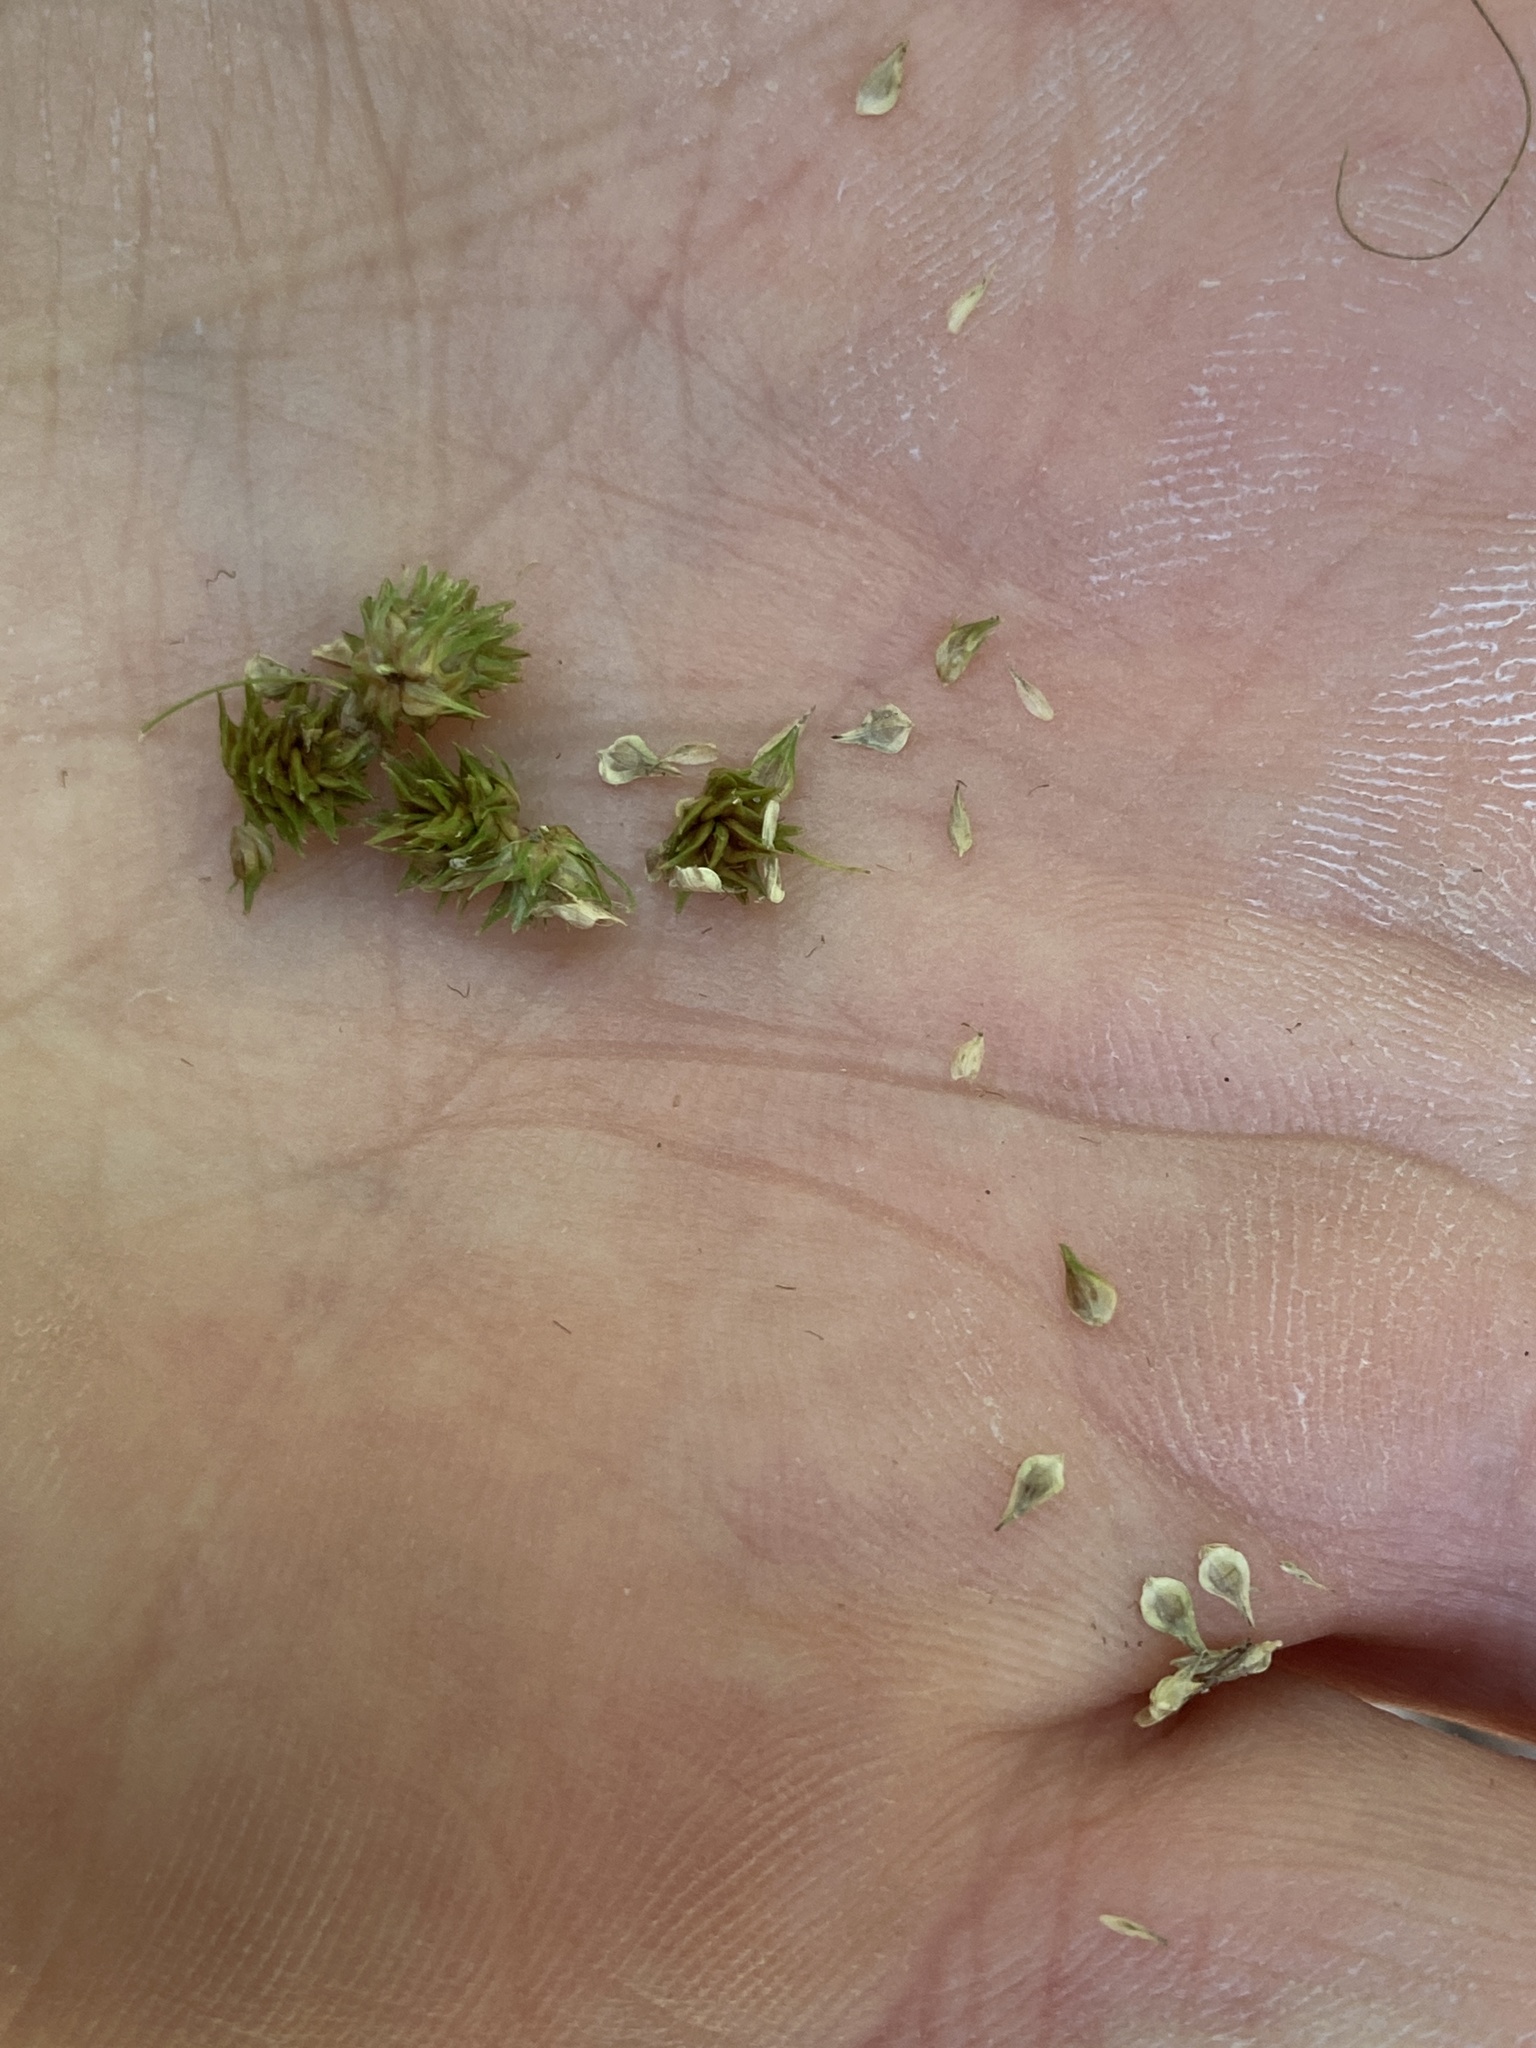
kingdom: Plantae
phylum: Tracheophyta
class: Liliopsida
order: Poales
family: Cyperaceae
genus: Carex
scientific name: Carex vulpinoidea
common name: American fox-sedge
